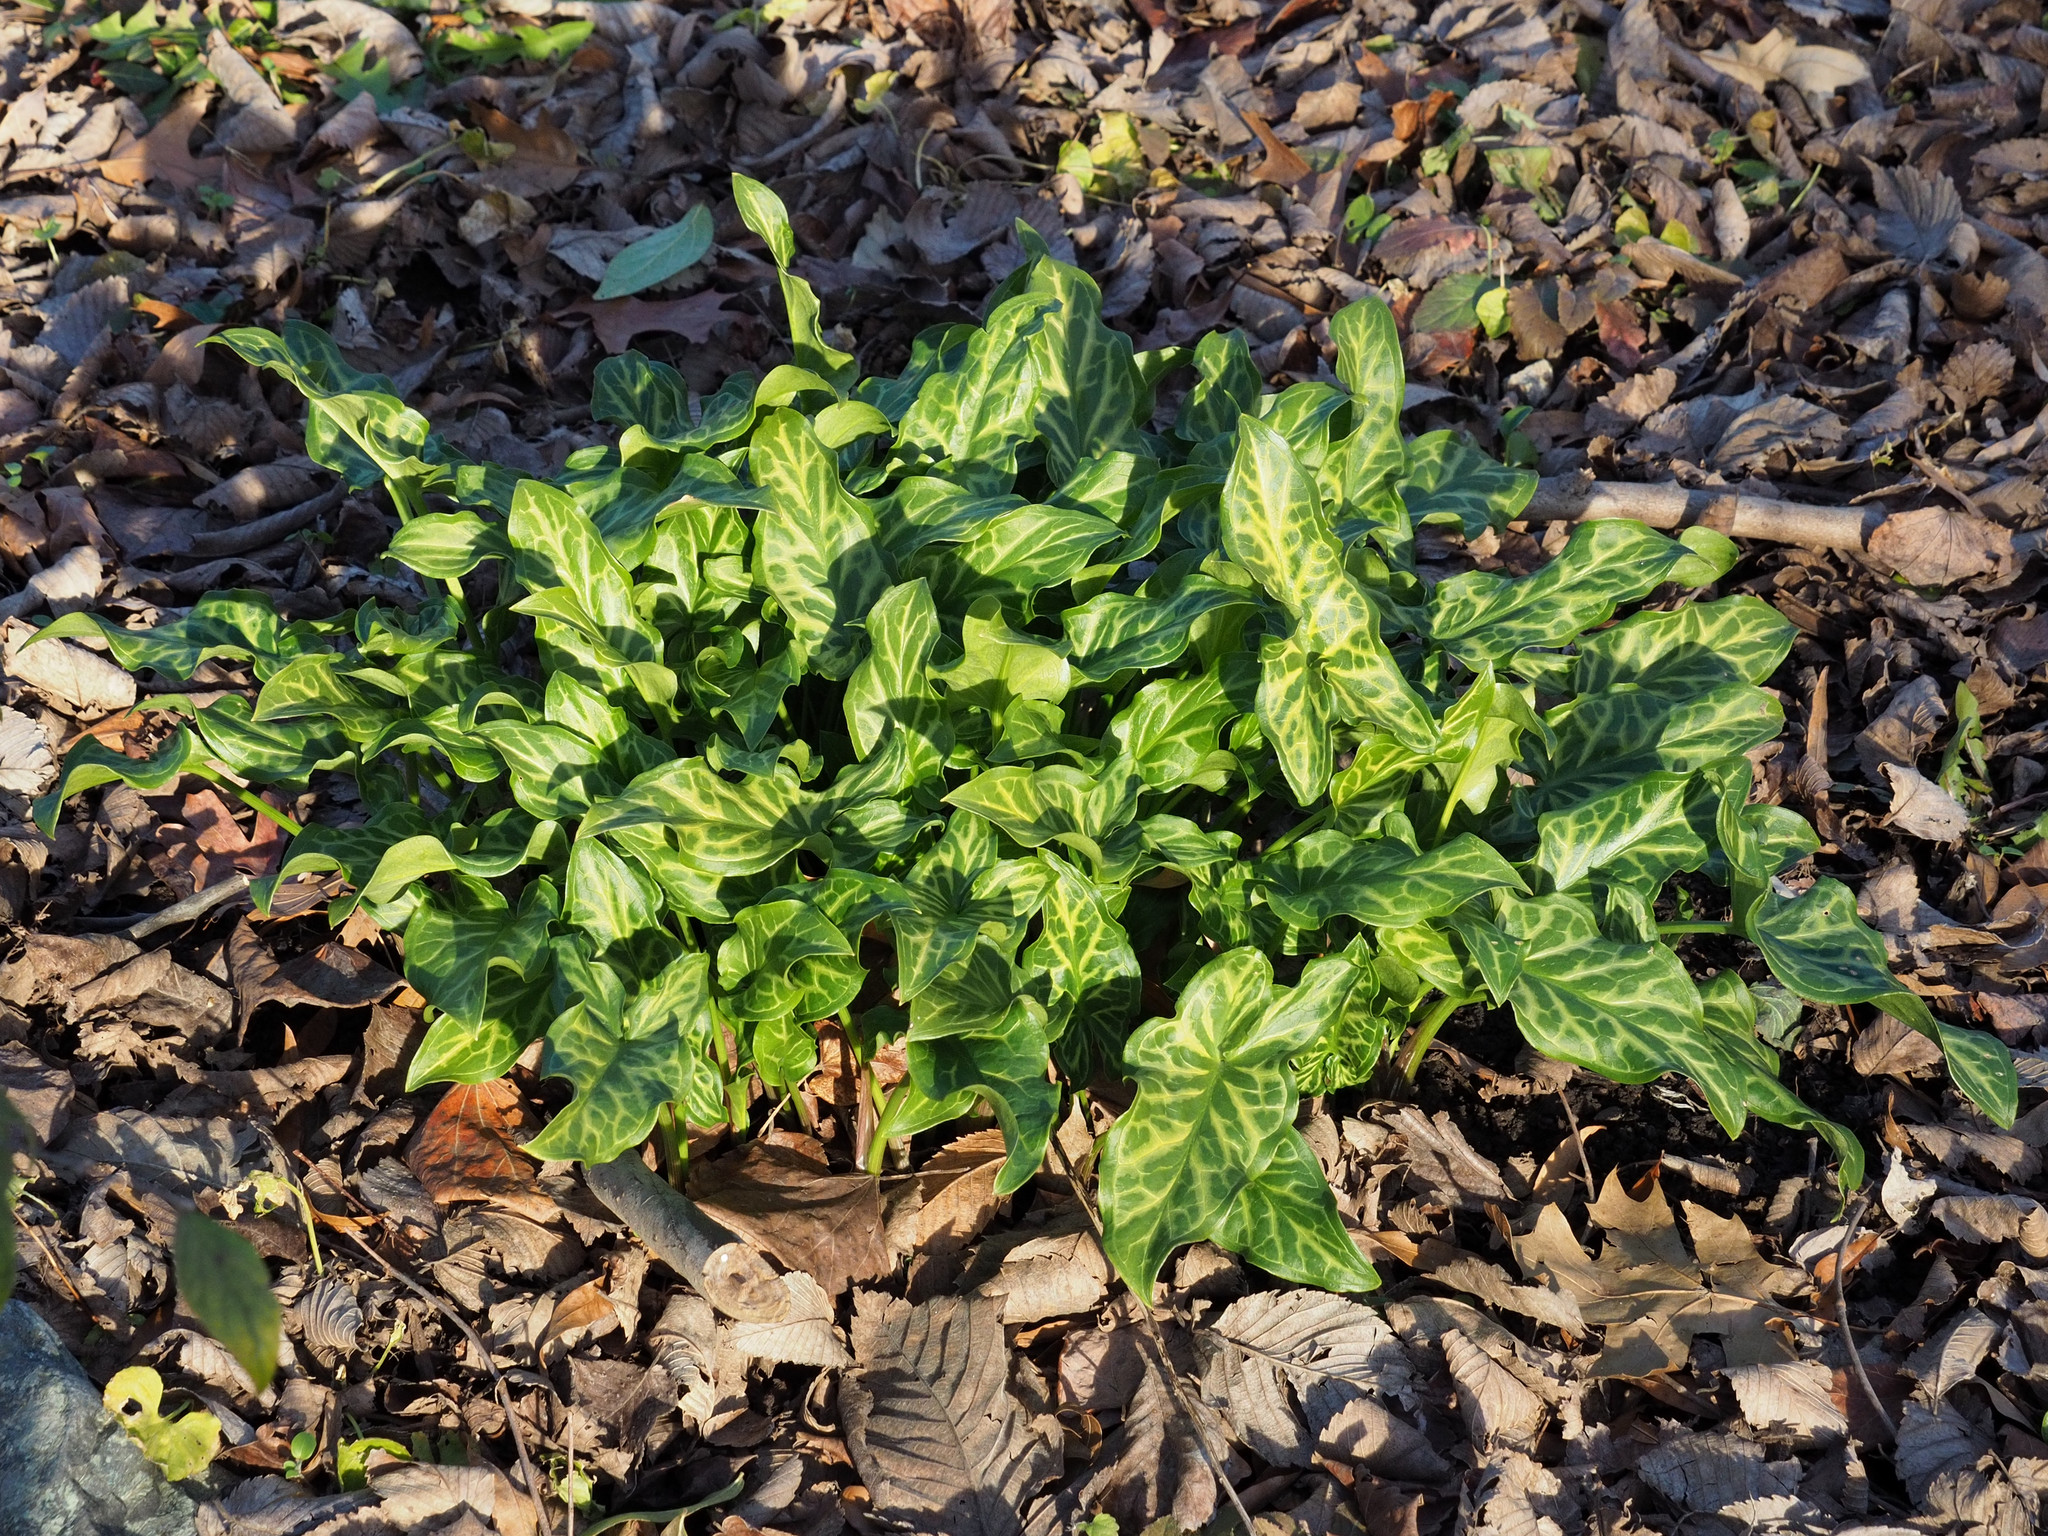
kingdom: Plantae
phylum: Tracheophyta
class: Liliopsida
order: Alismatales
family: Araceae
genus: Arum
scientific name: Arum italicum
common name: Italian lords-and-ladies
